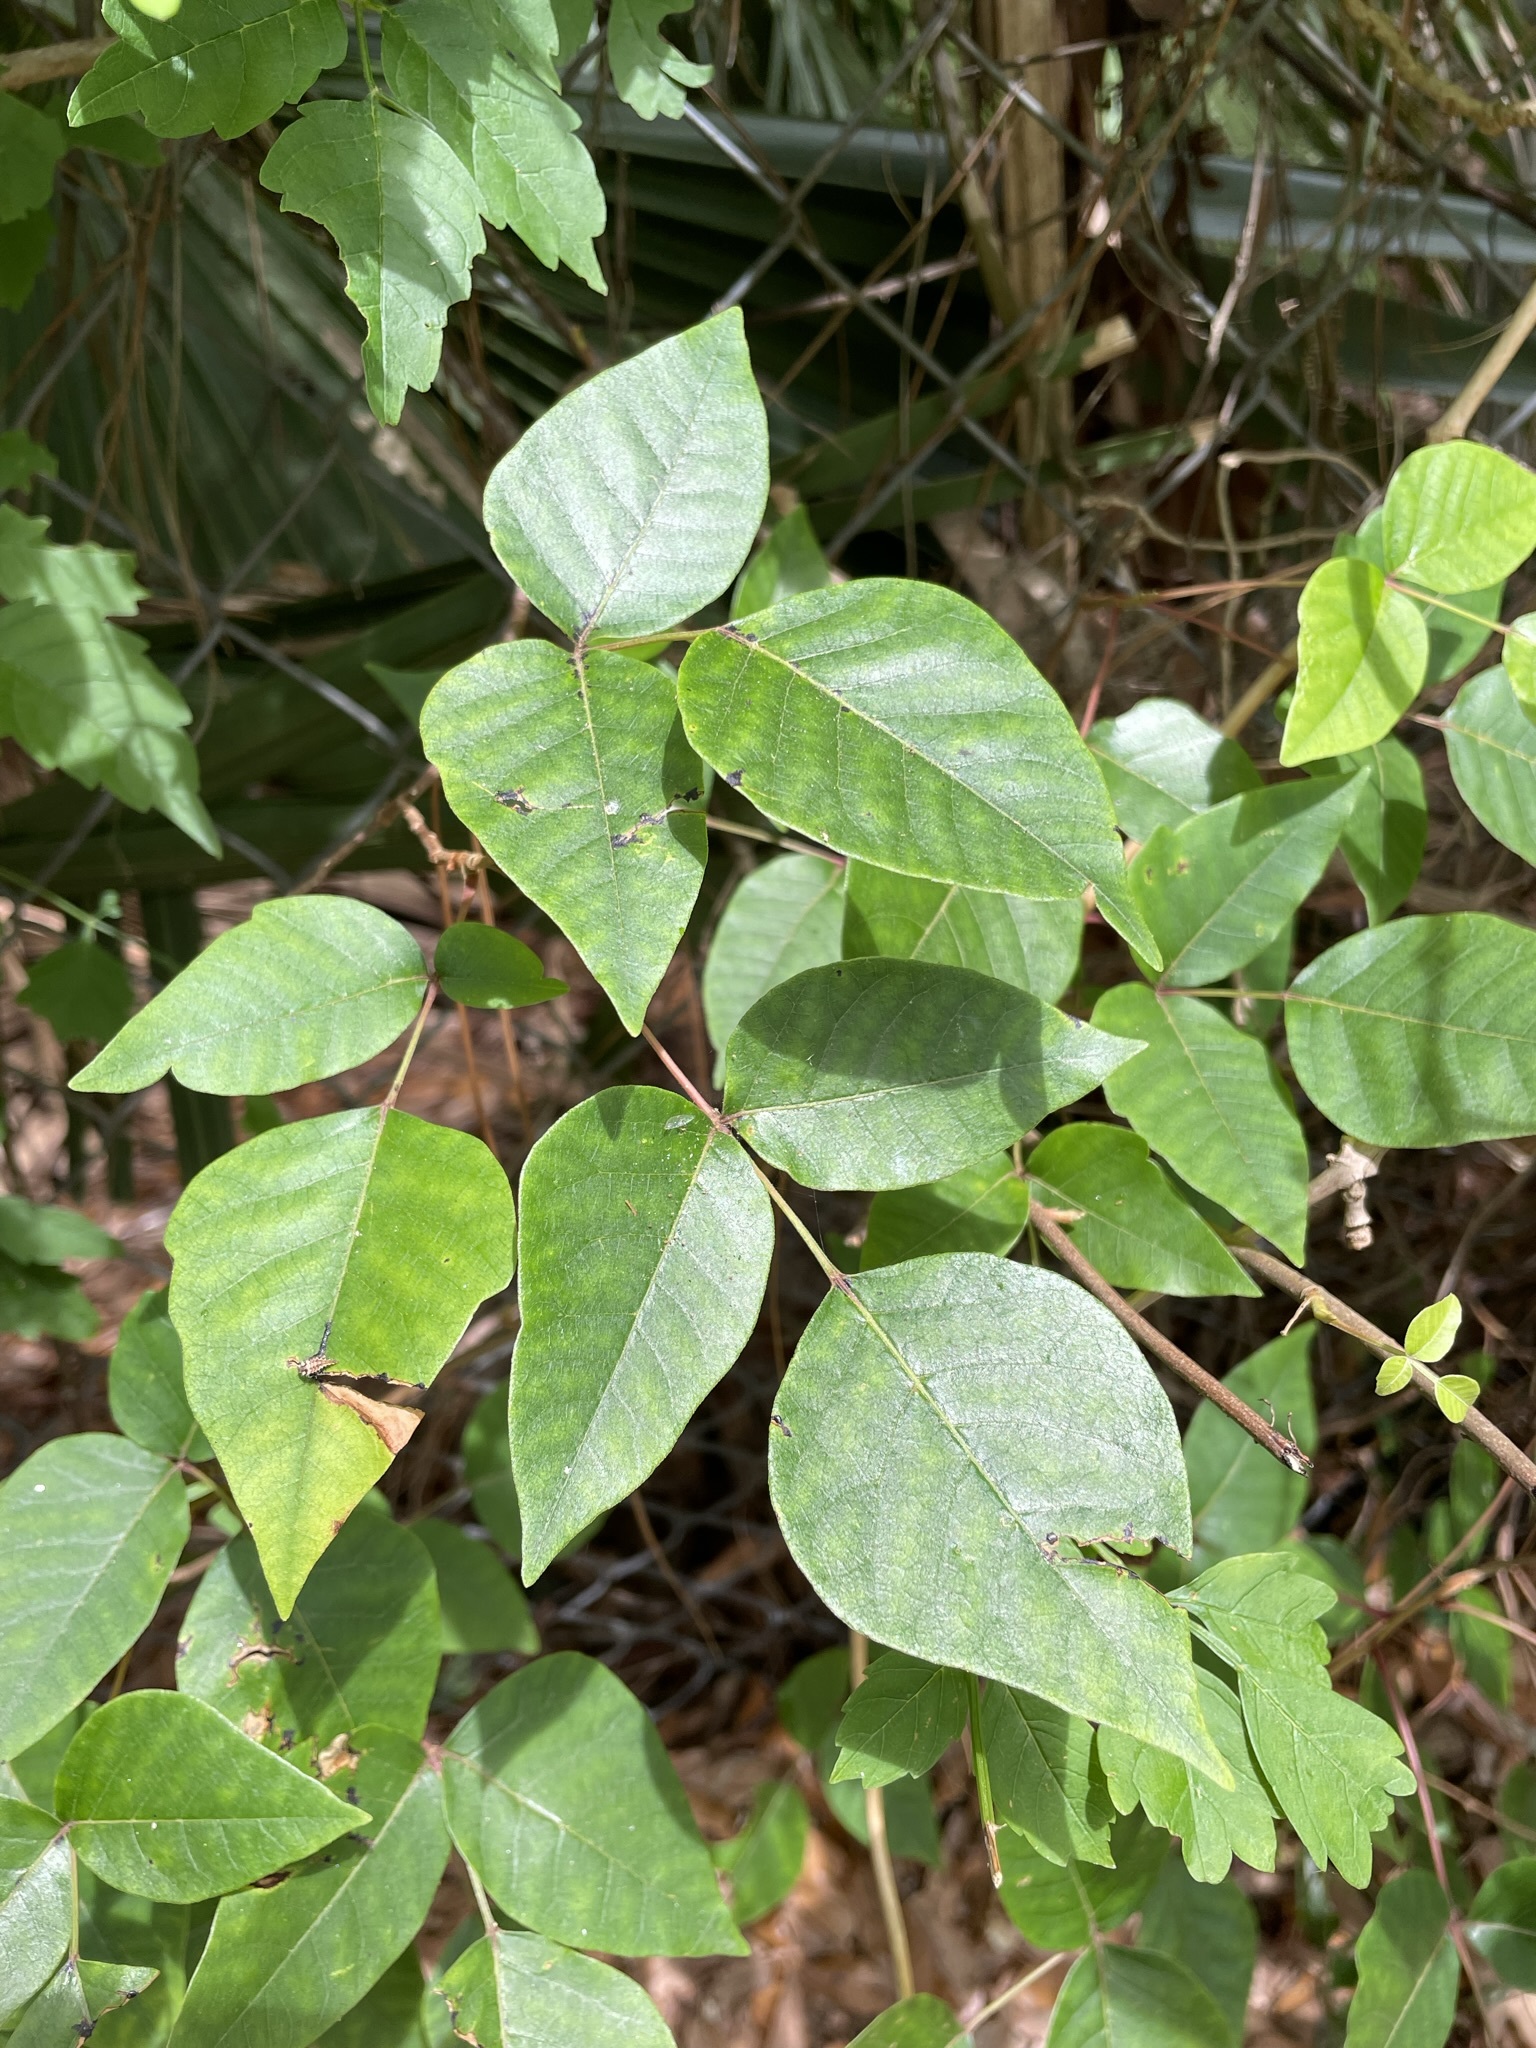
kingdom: Plantae
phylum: Tracheophyta
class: Magnoliopsida
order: Sapindales
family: Anacardiaceae
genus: Toxicodendron
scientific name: Toxicodendron radicans
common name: Poison ivy
